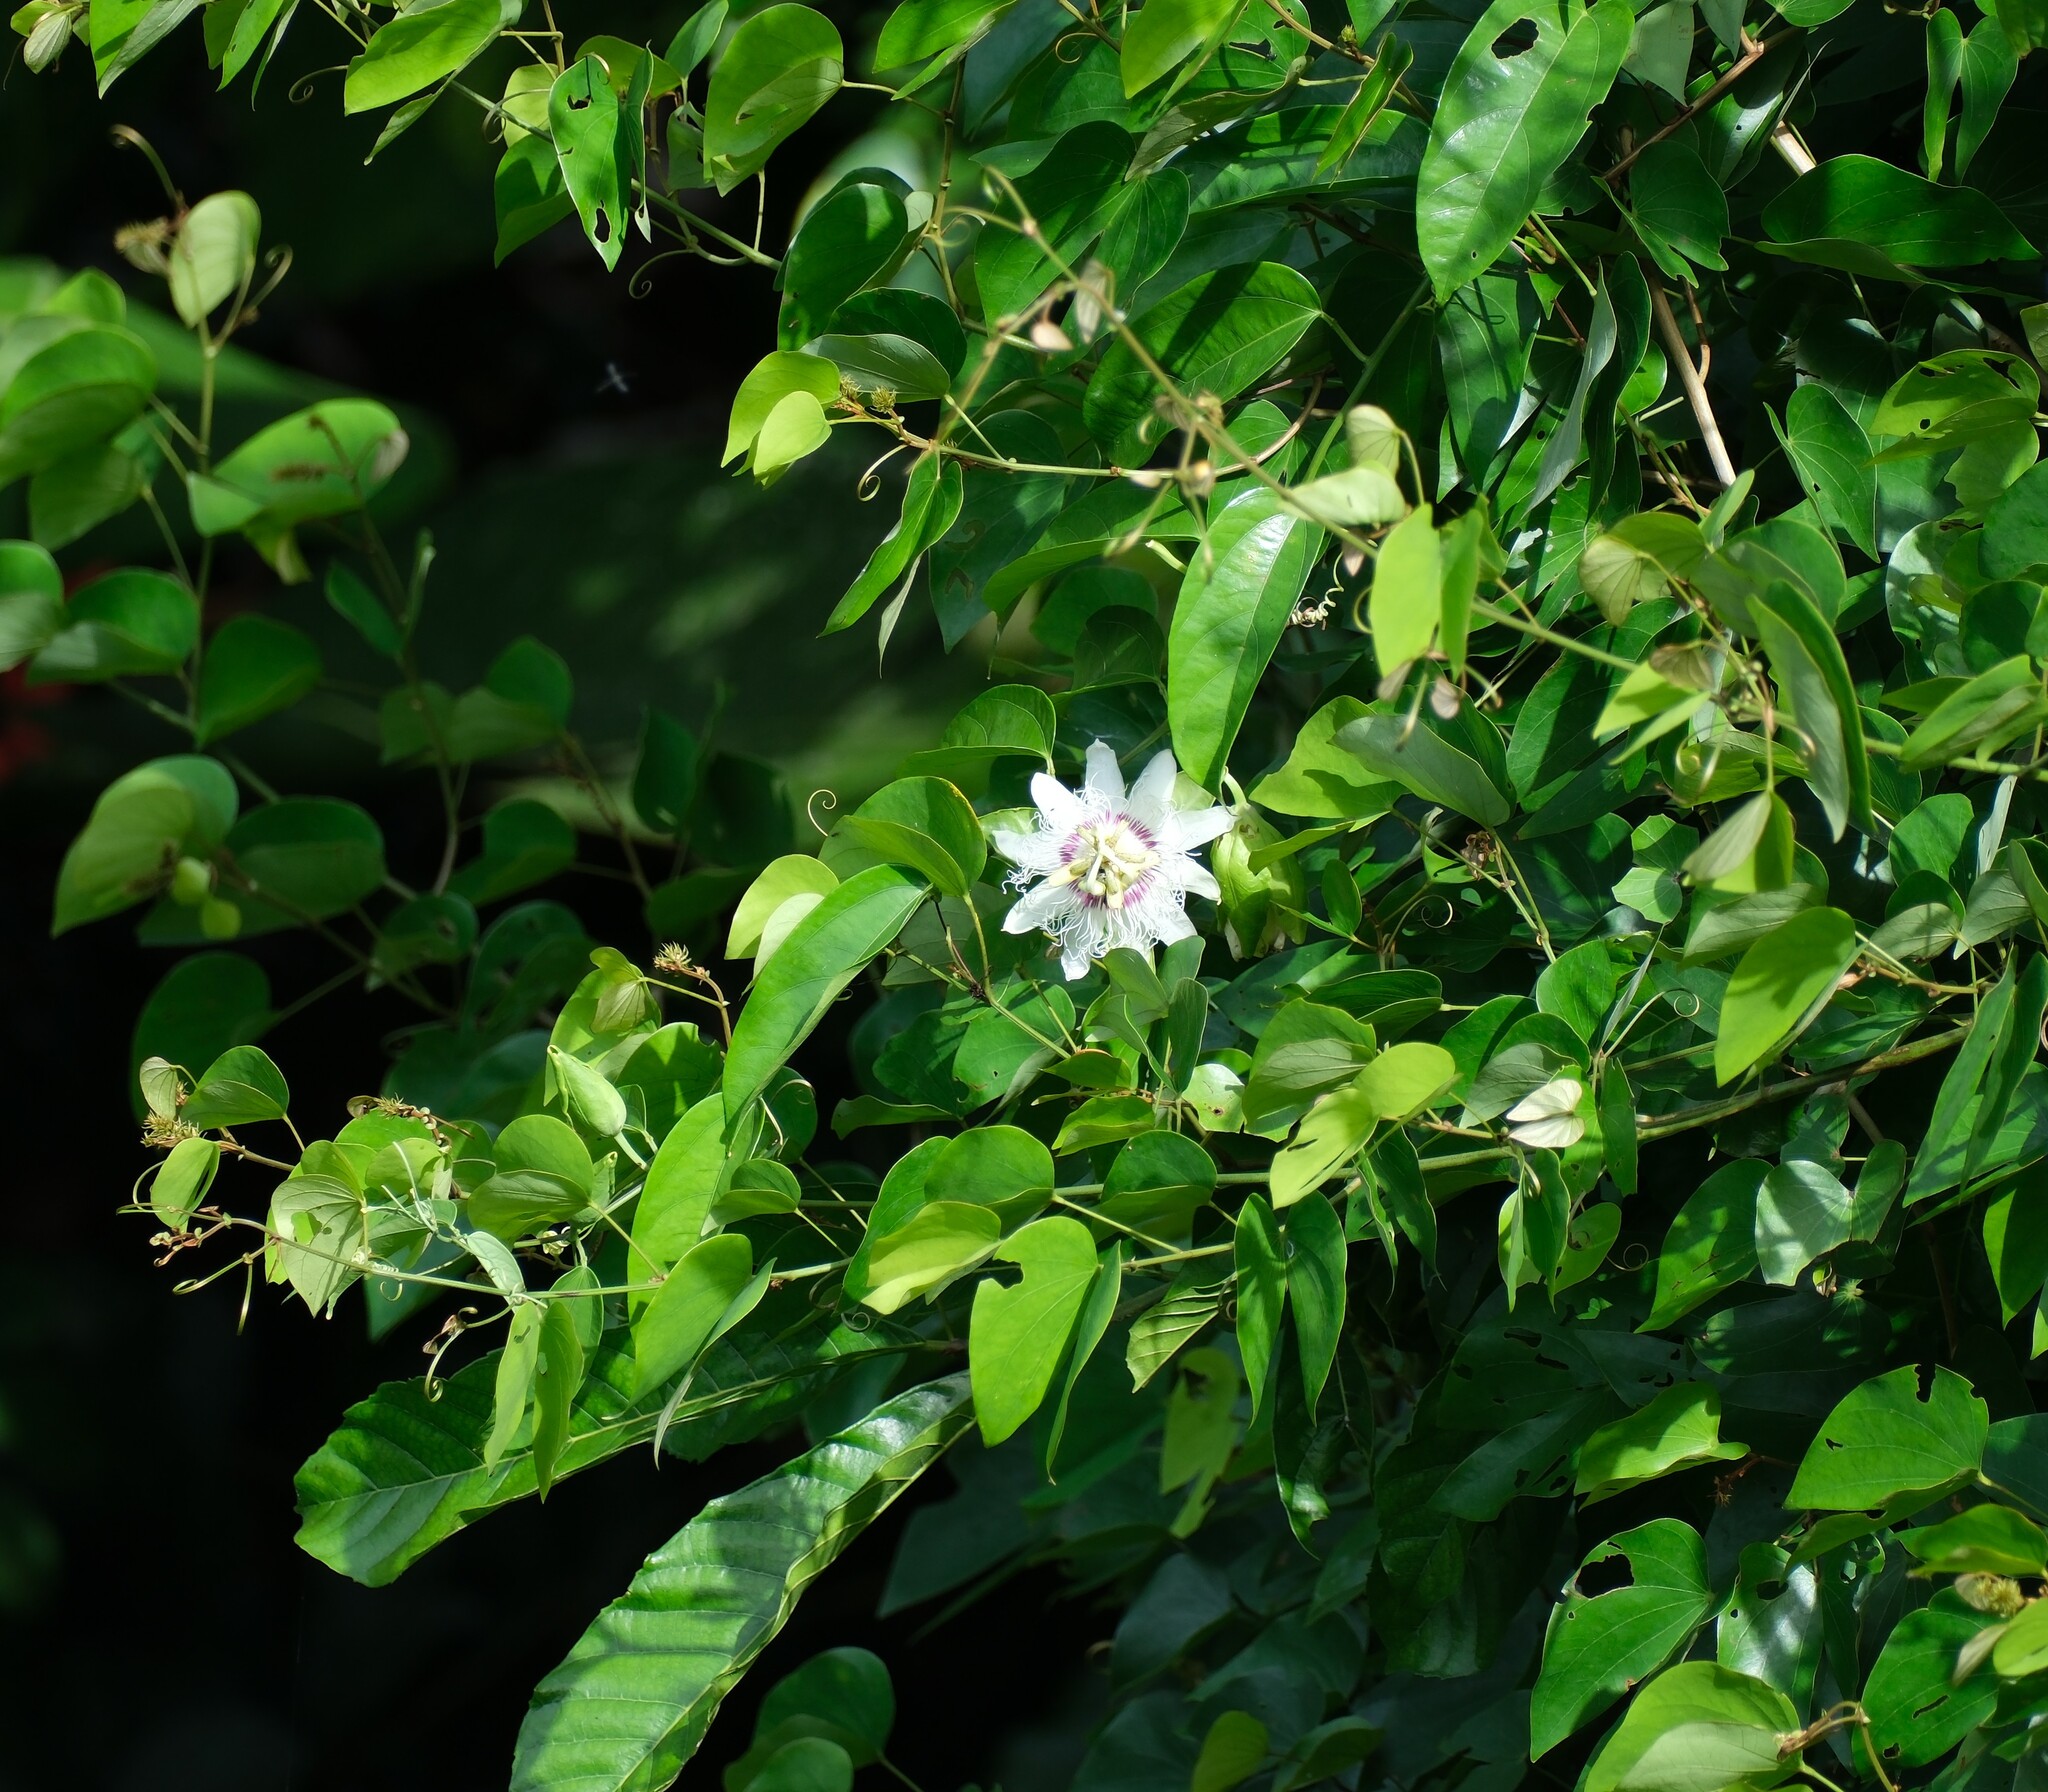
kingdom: Plantae
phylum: Tracheophyta
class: Magnoliopsida
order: Malpighiales
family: Passifloraceae
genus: Passiflora
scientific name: Passiflora poslae
